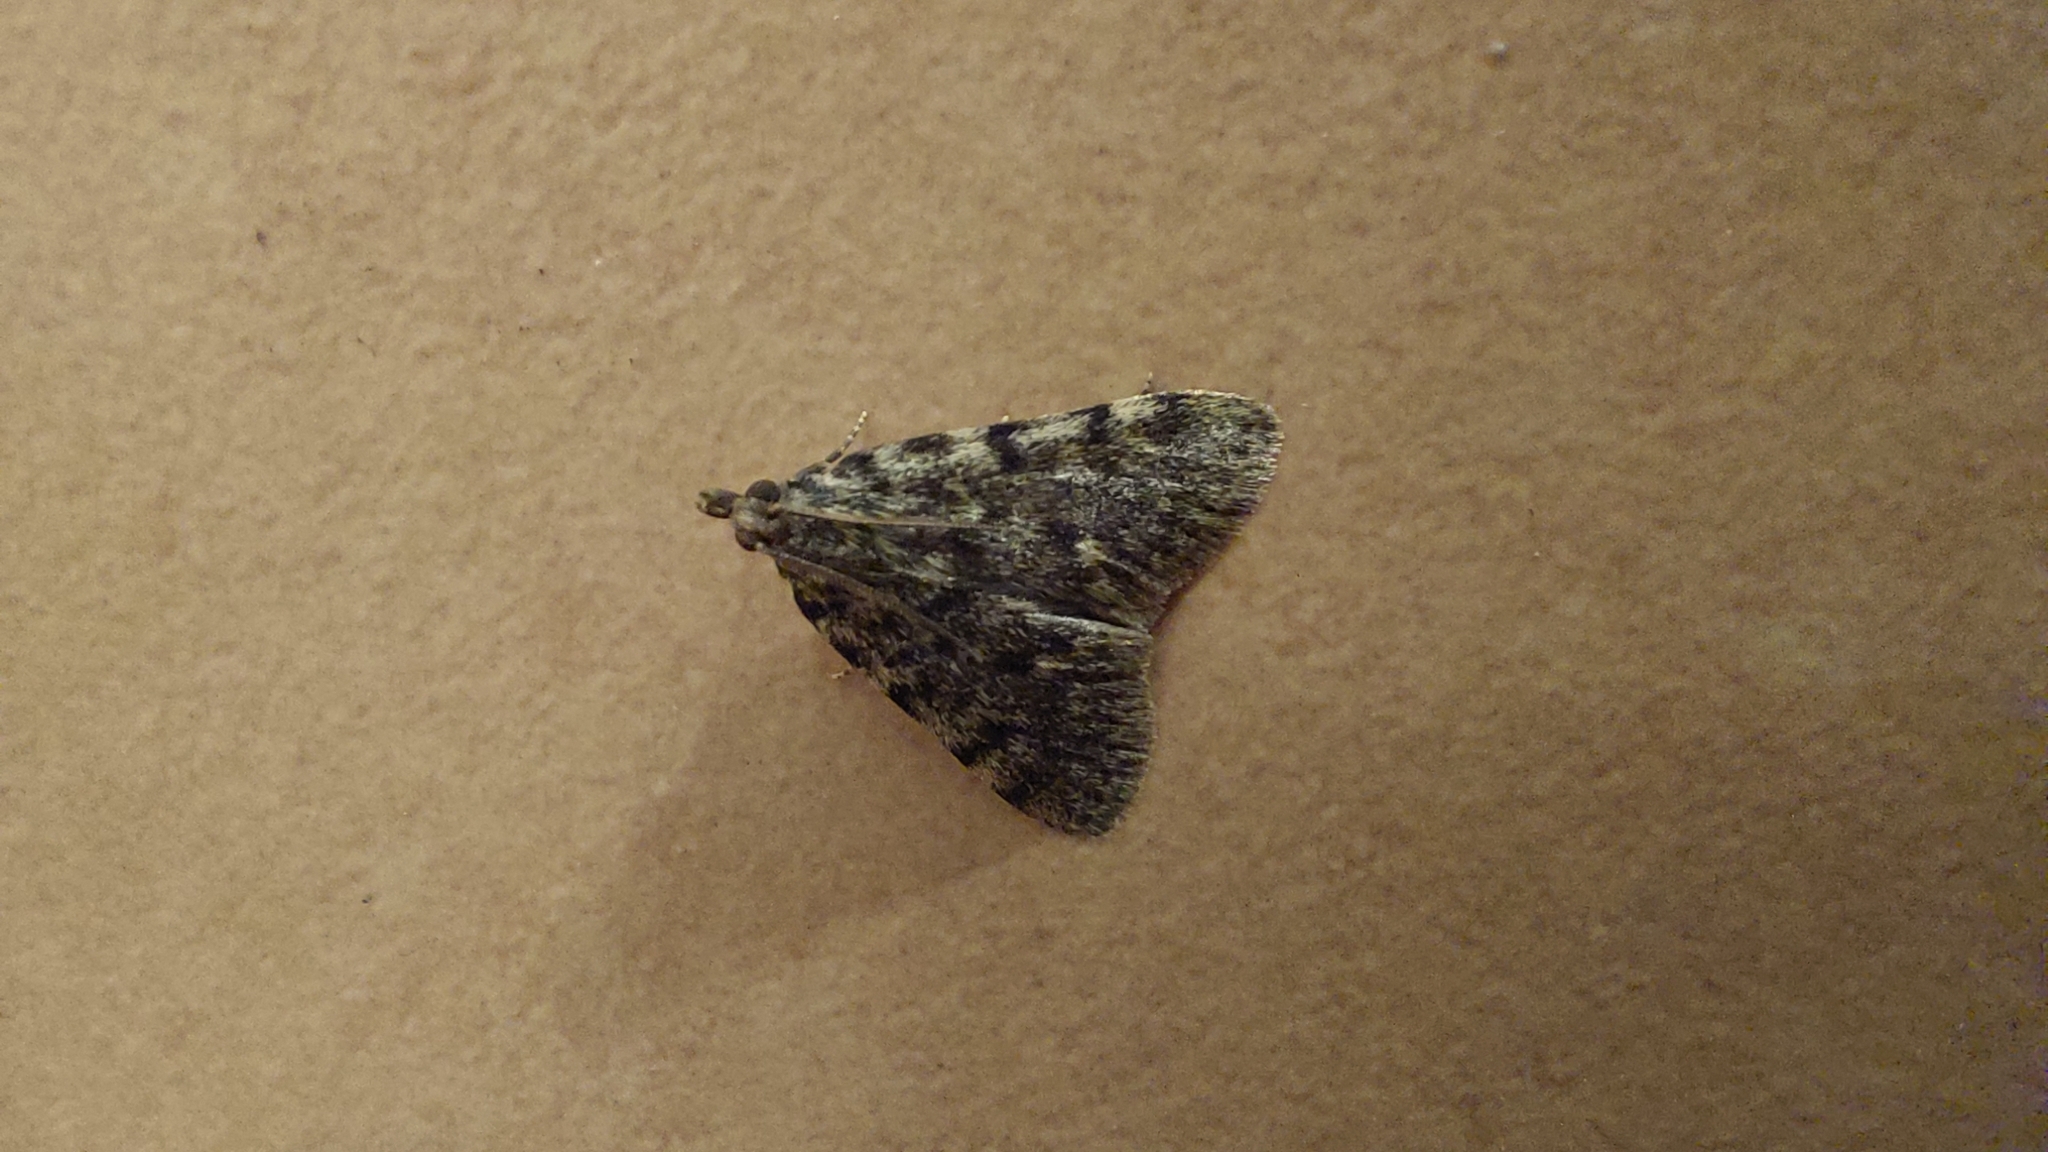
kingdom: Animalia
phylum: Arthropoda
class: Insecta
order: Lepidoptera
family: Pyralidae
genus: Aglossa
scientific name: Aglossa pinguinalis
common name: Large tabby
